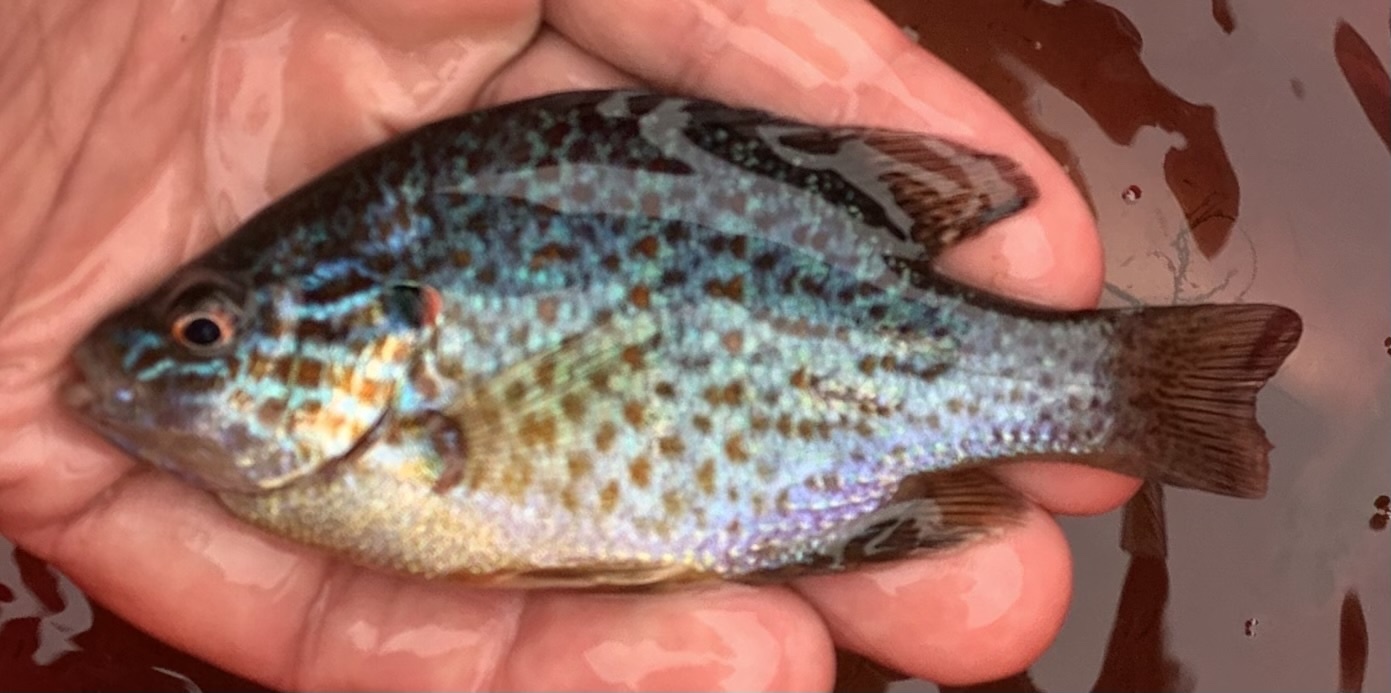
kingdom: Animalia
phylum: Chordata
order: Perciformes
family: Centrarchidae
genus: Lepomis
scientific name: Lepomis gibbosus
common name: Pumpkinseed
